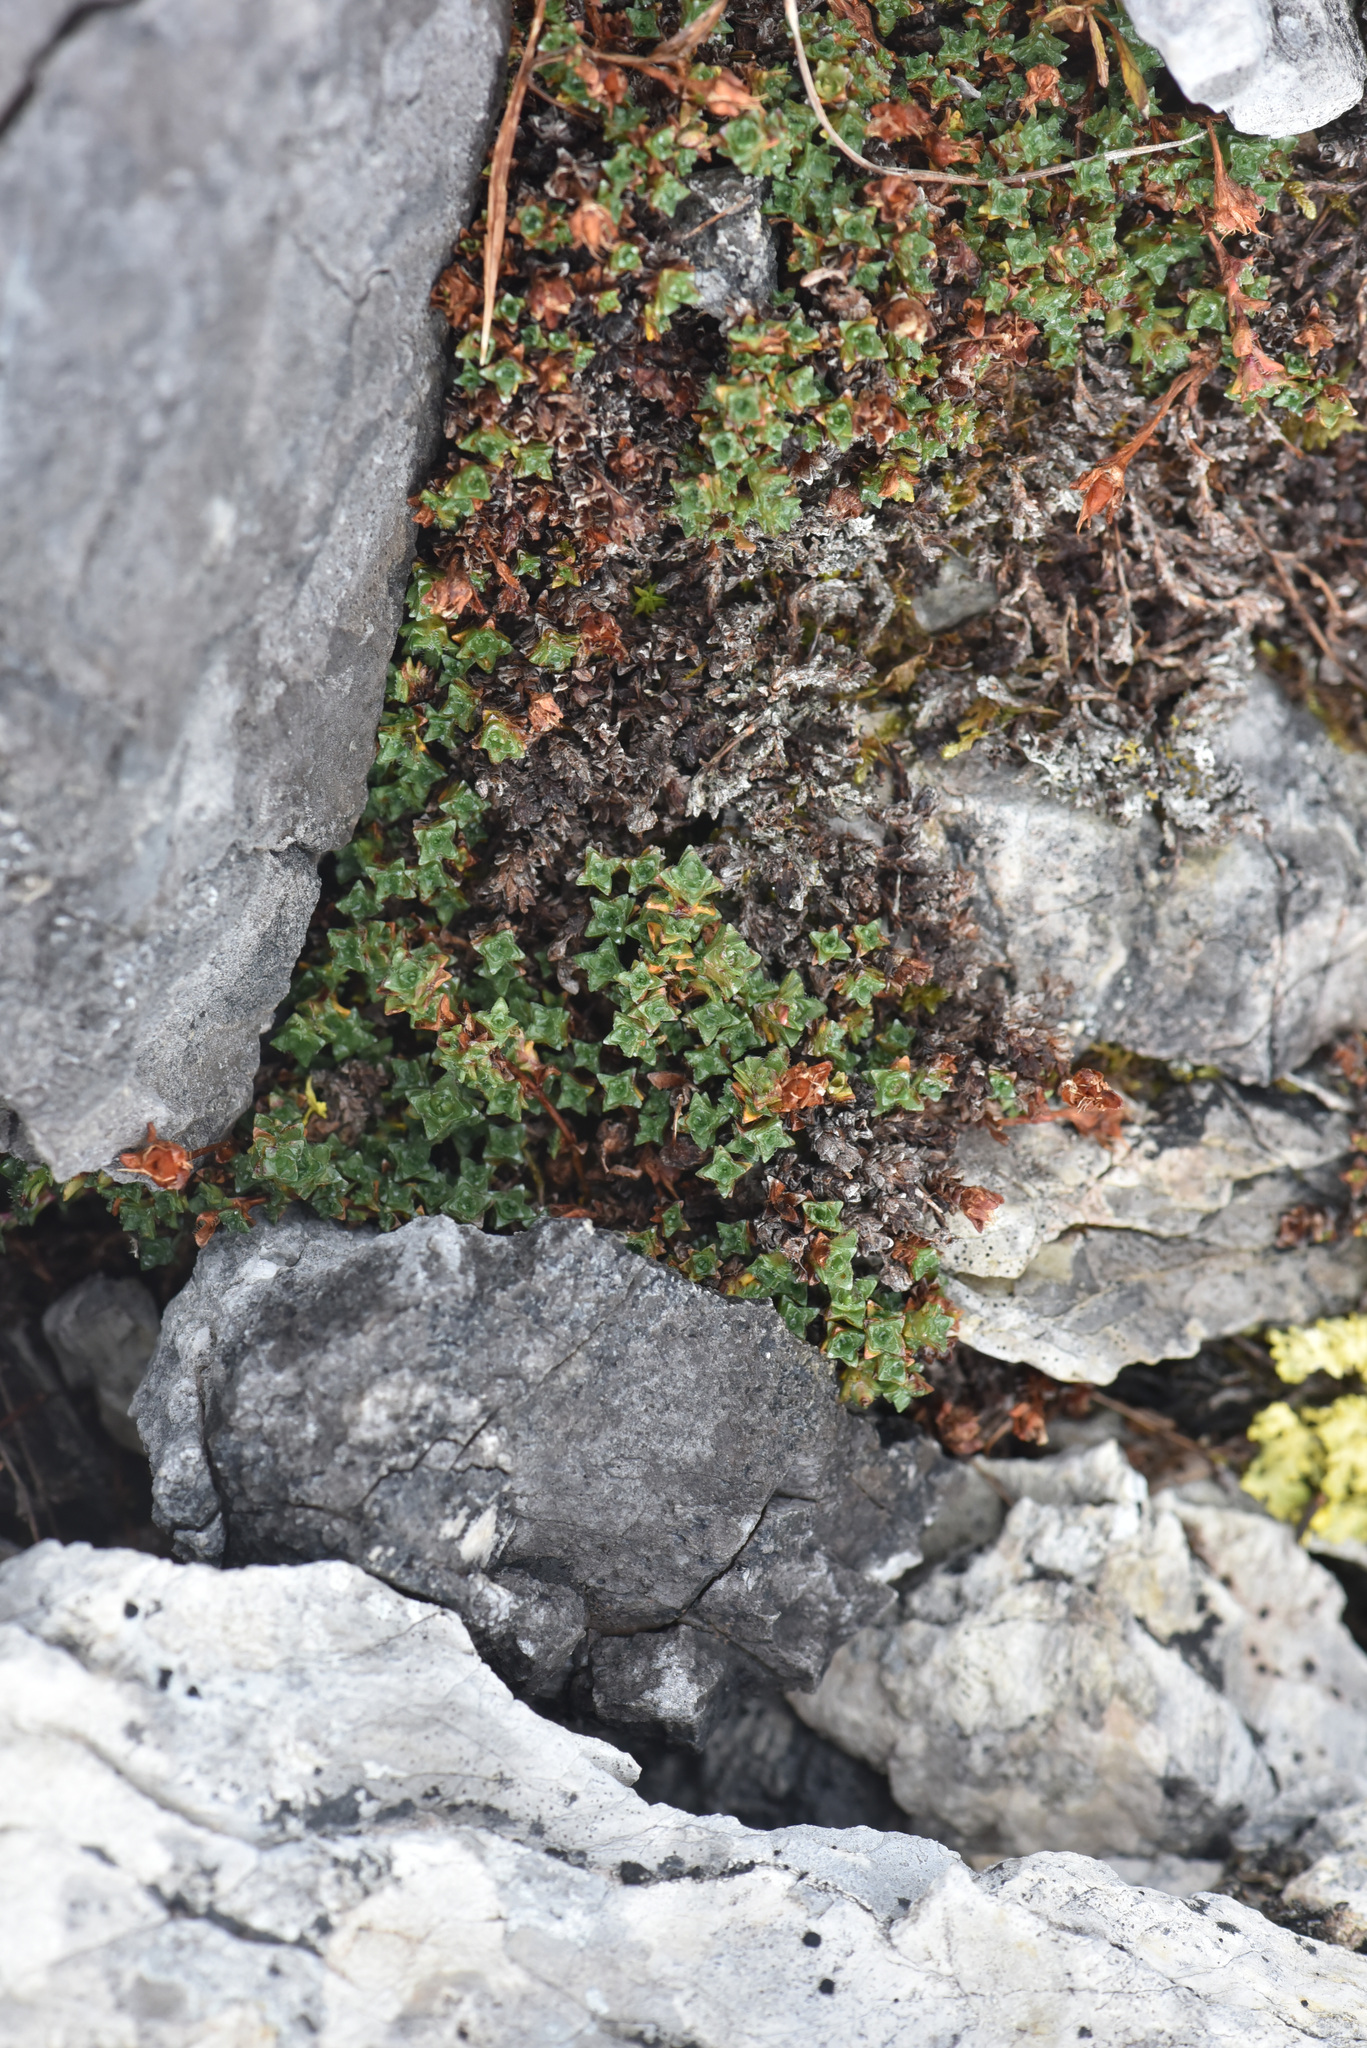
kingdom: Plantae
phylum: Tracheophyta
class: Magnoliopsida
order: Saxifragales
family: Saxifragaceae
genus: Saxifraga
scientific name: Saxifraga oppositifolia
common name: Purple saxifrage
